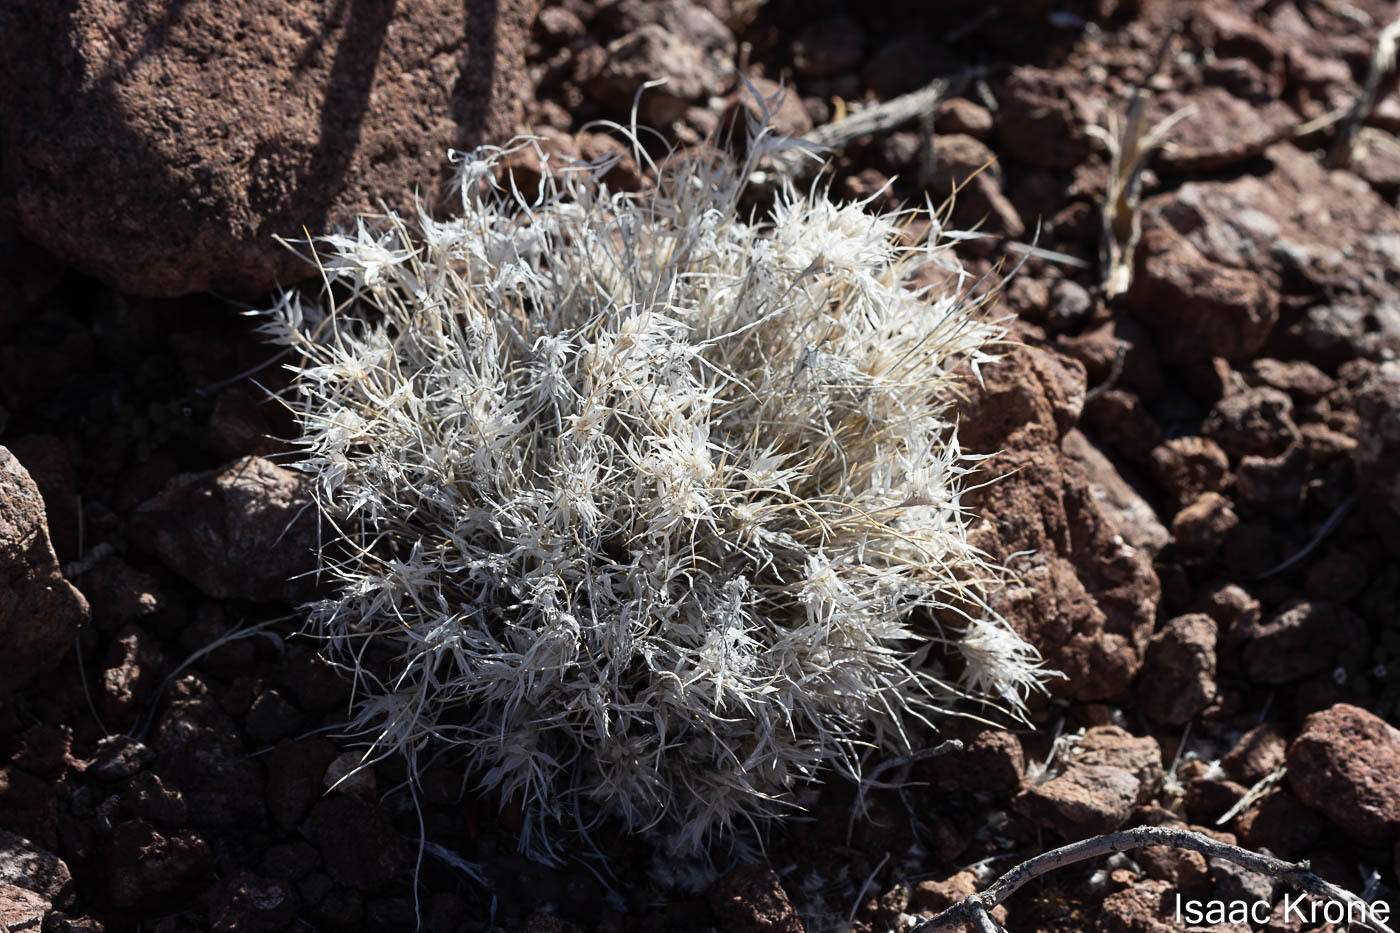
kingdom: Plantae
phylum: Tracheophyta
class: Liliopsida
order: Poales
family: Poaceae
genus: Dasyochloa
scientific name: Dasyochloa pulchella
